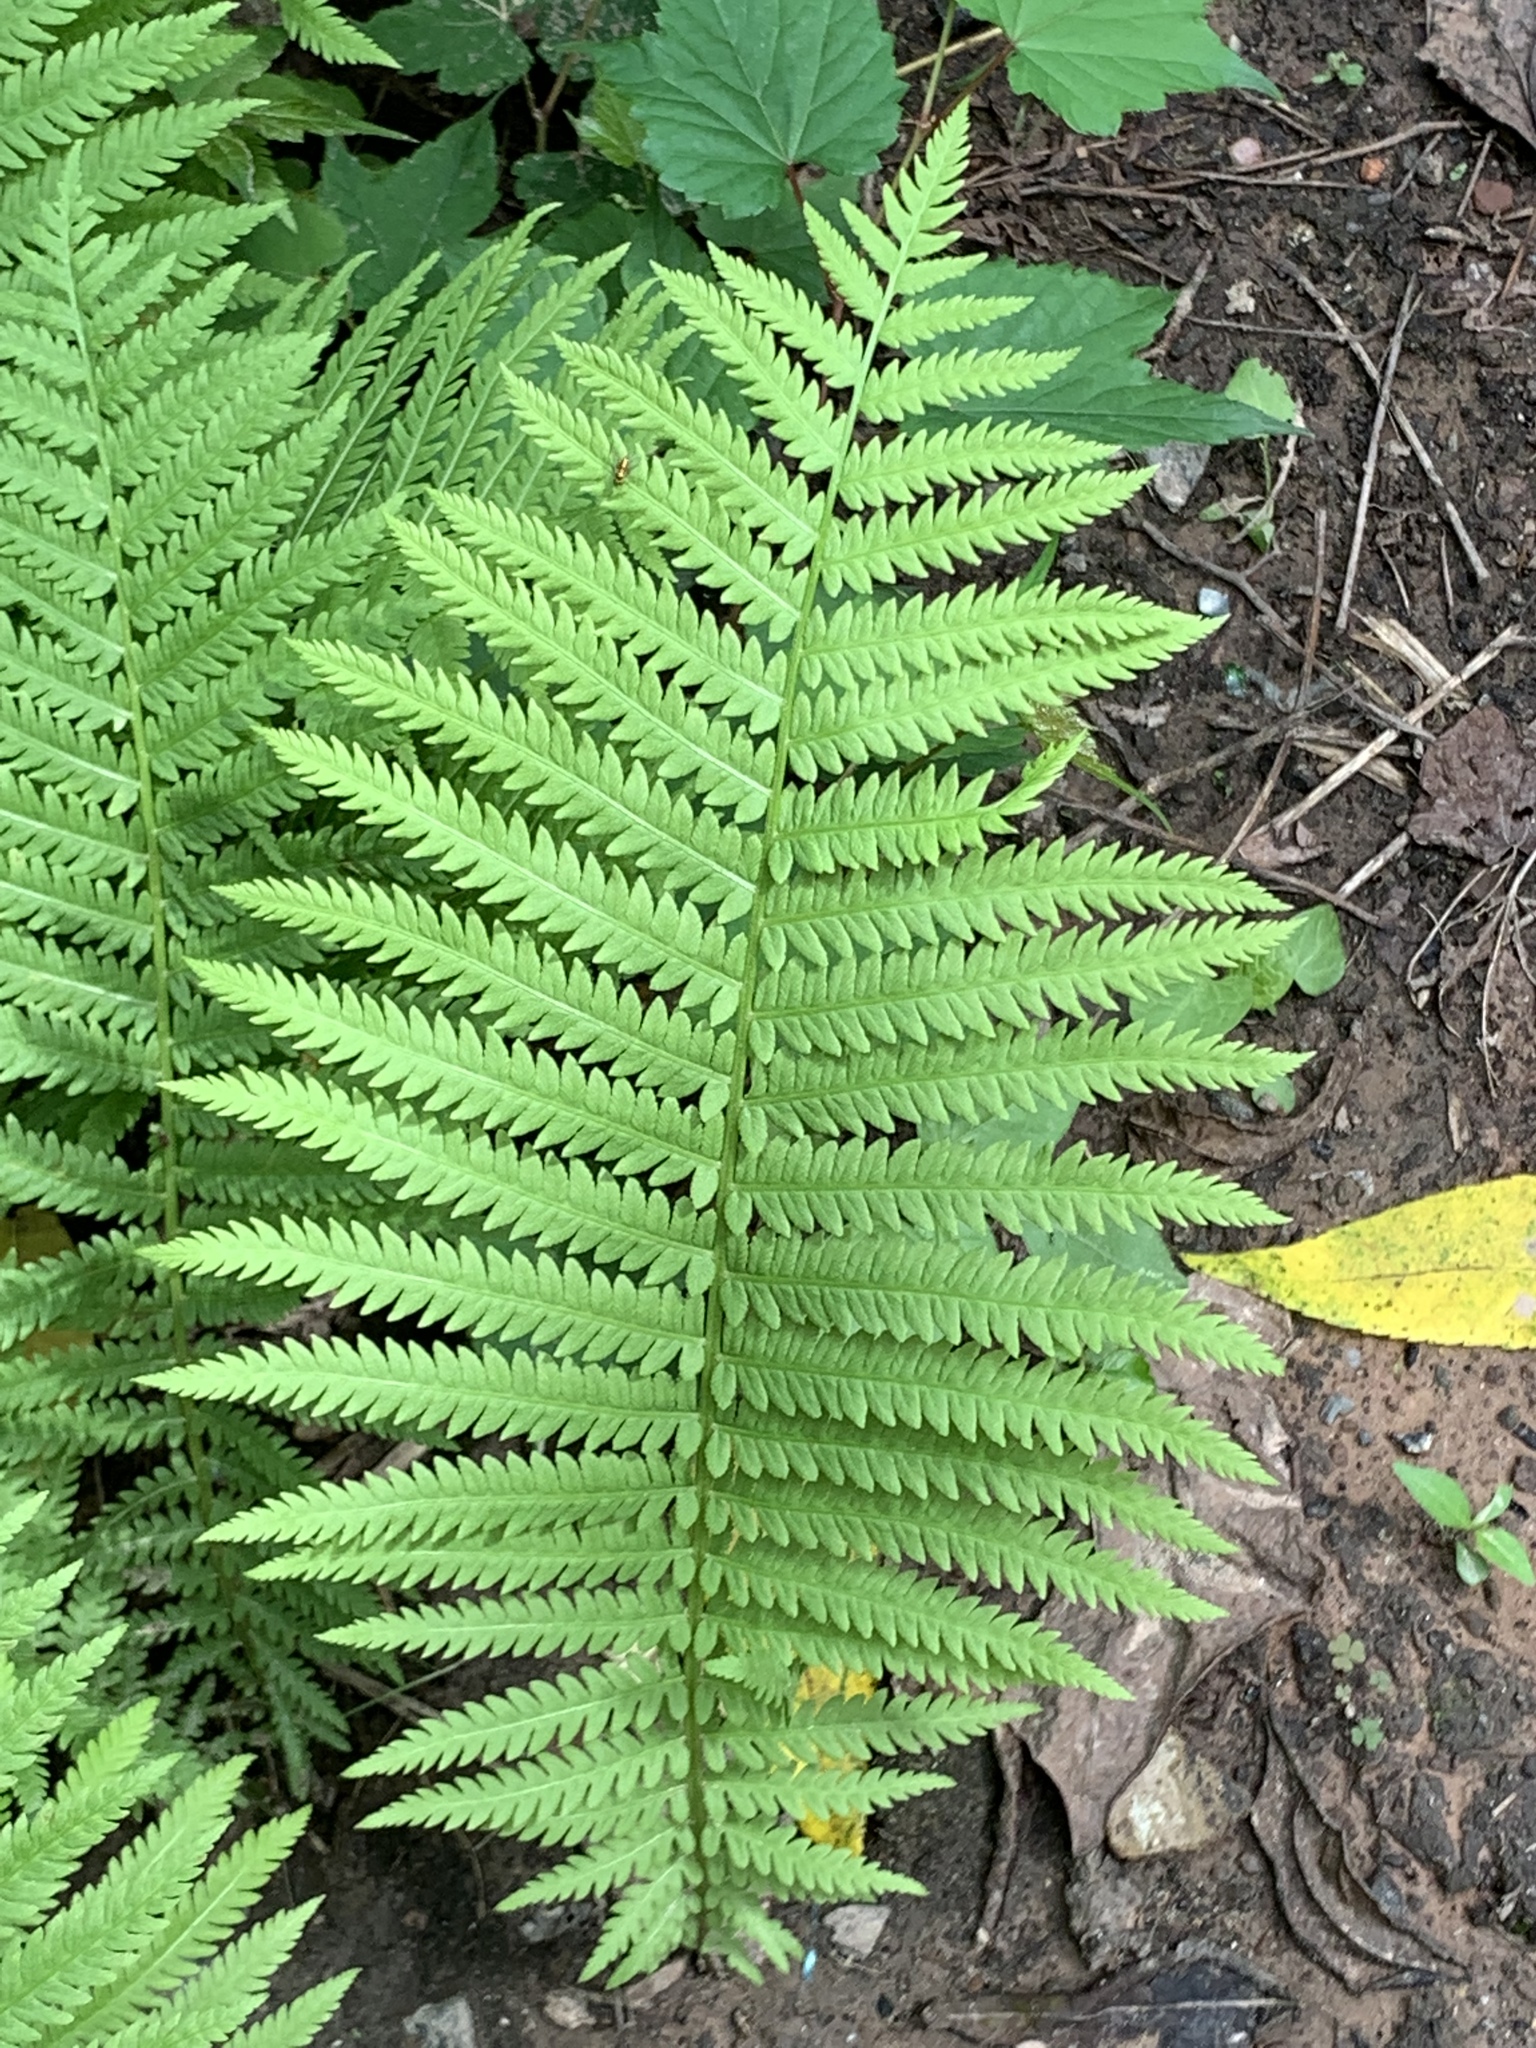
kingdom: Plantae
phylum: Tracheophyta
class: Polypodiopsida
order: Polypodiales
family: Onocleaceae
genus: Matteuccia
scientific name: Matteuccia struthiopteris
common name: Ostrich fern
